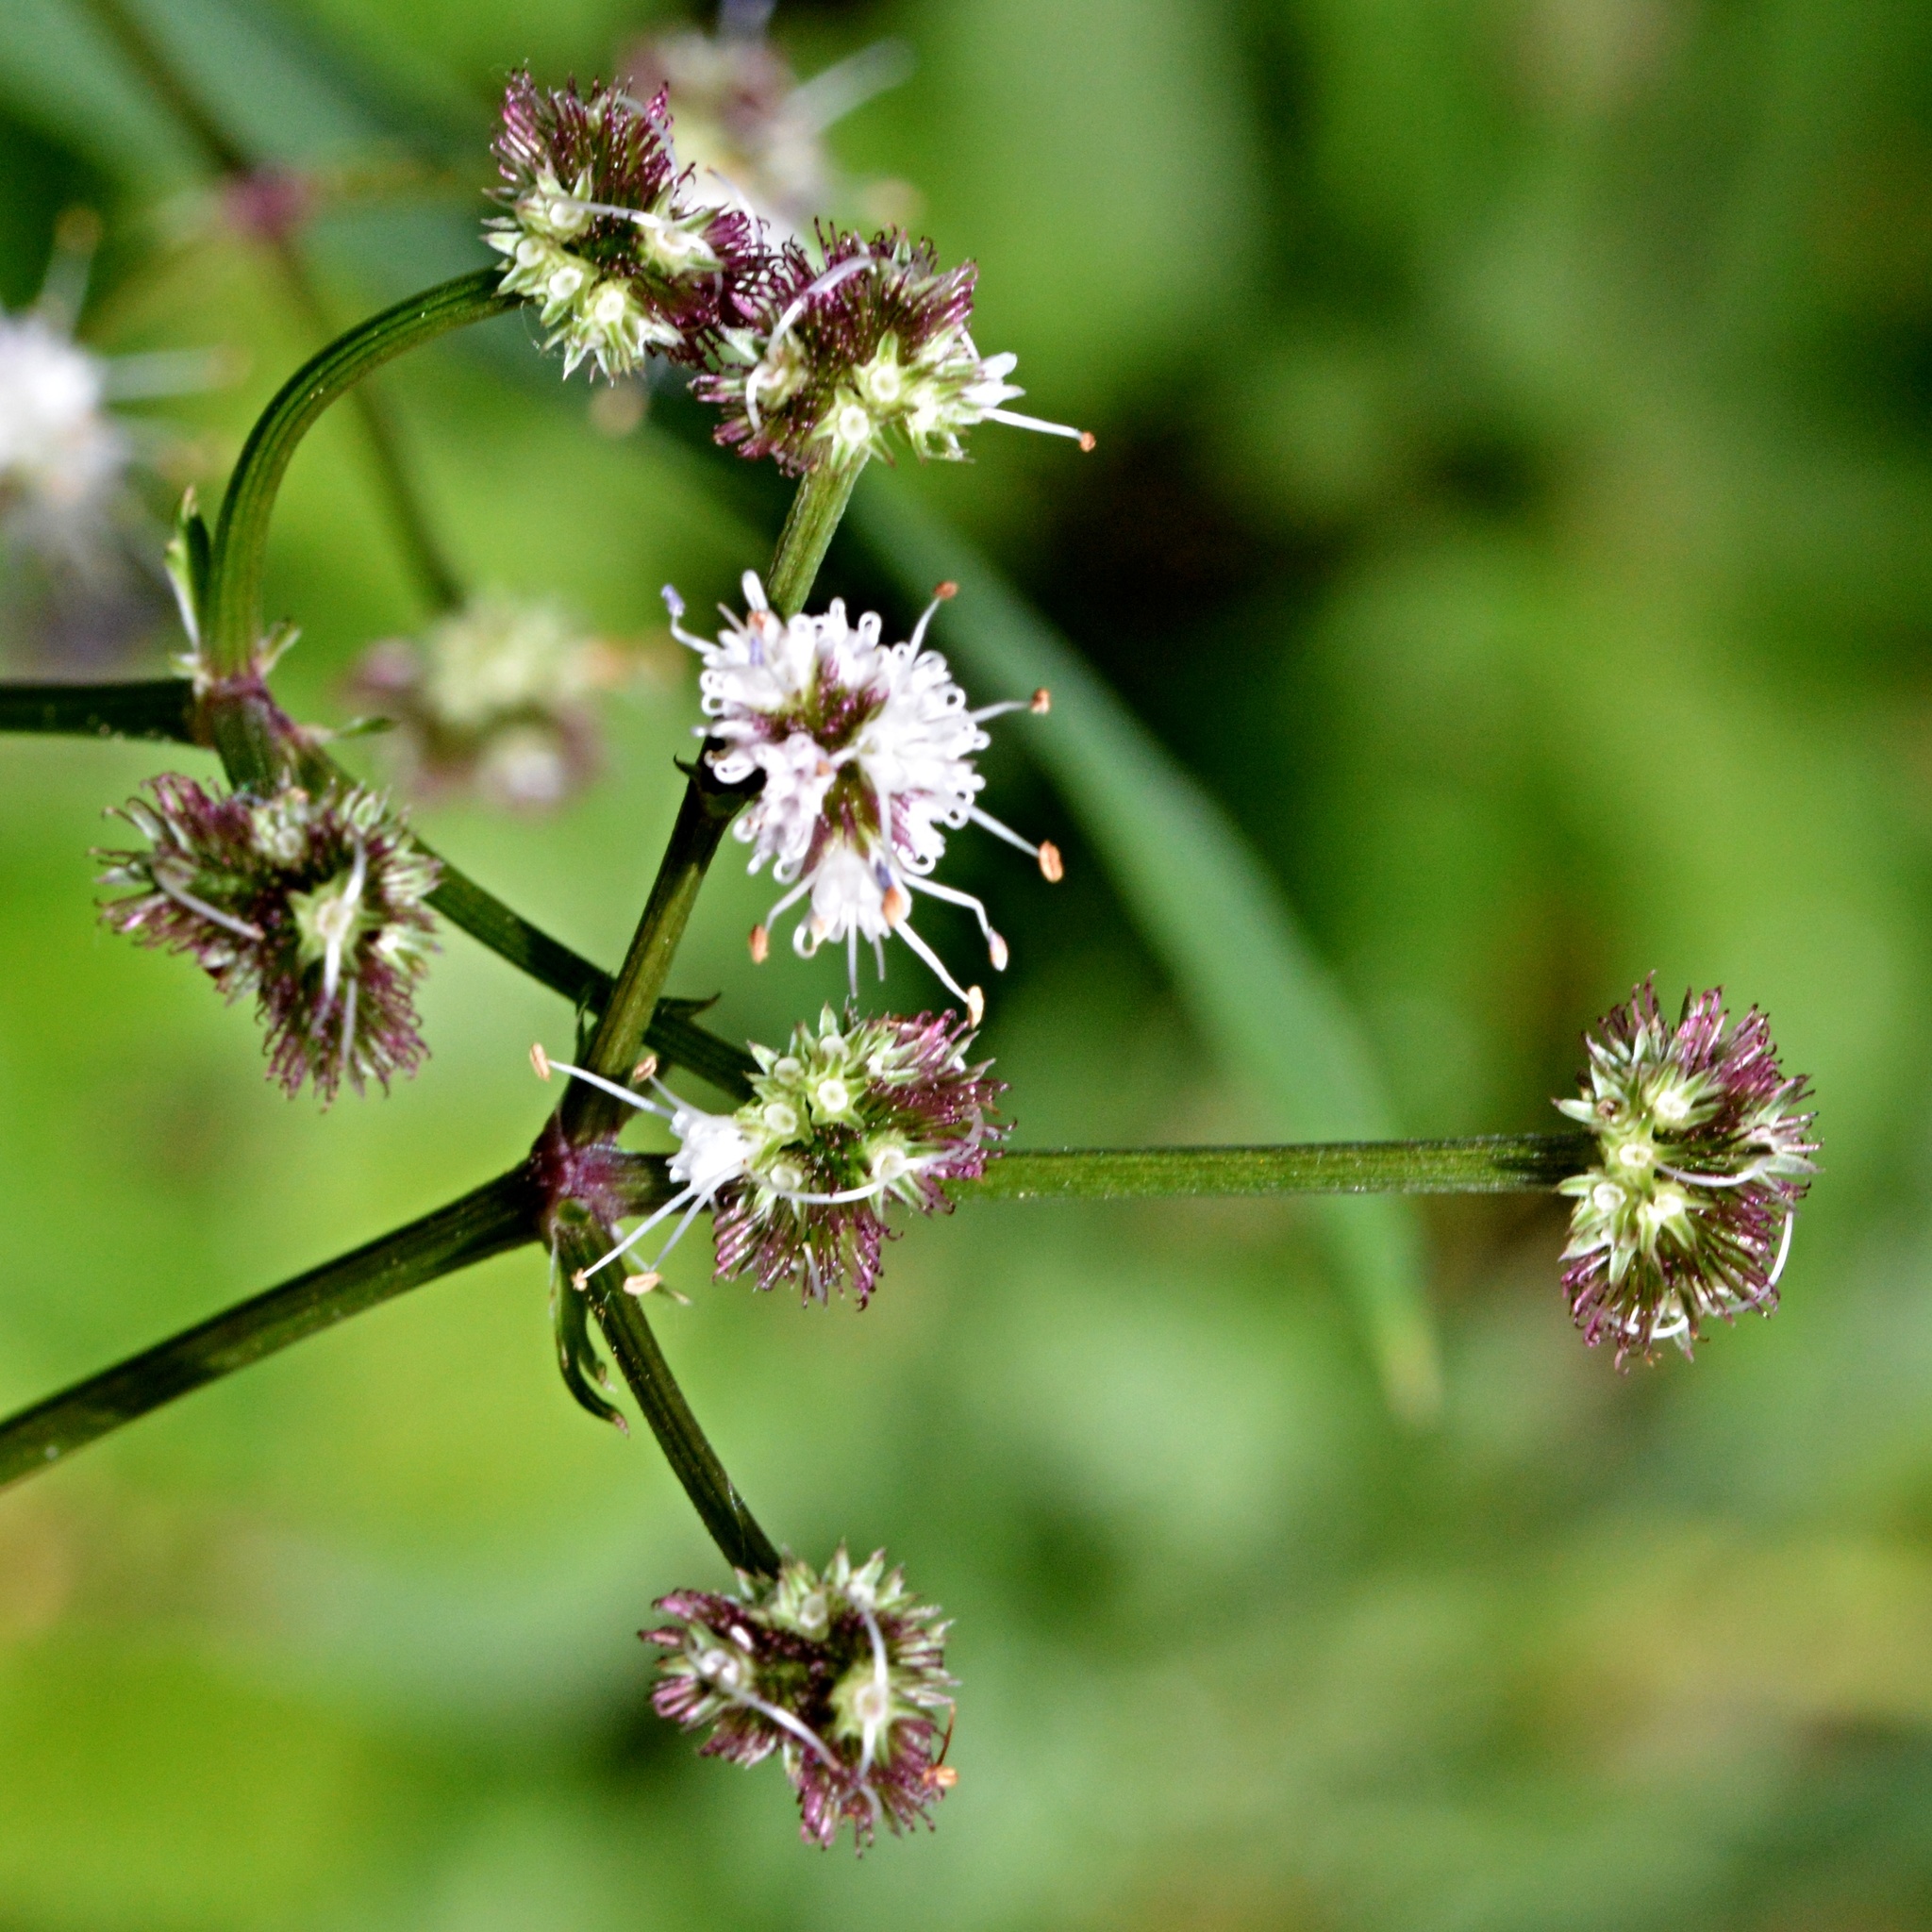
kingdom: Plantae
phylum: Tracheophyta
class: Magnoliopsida
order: Apiales
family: Apiaceae
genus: Sanicula
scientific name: Sanicula europaea
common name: Sanicle
